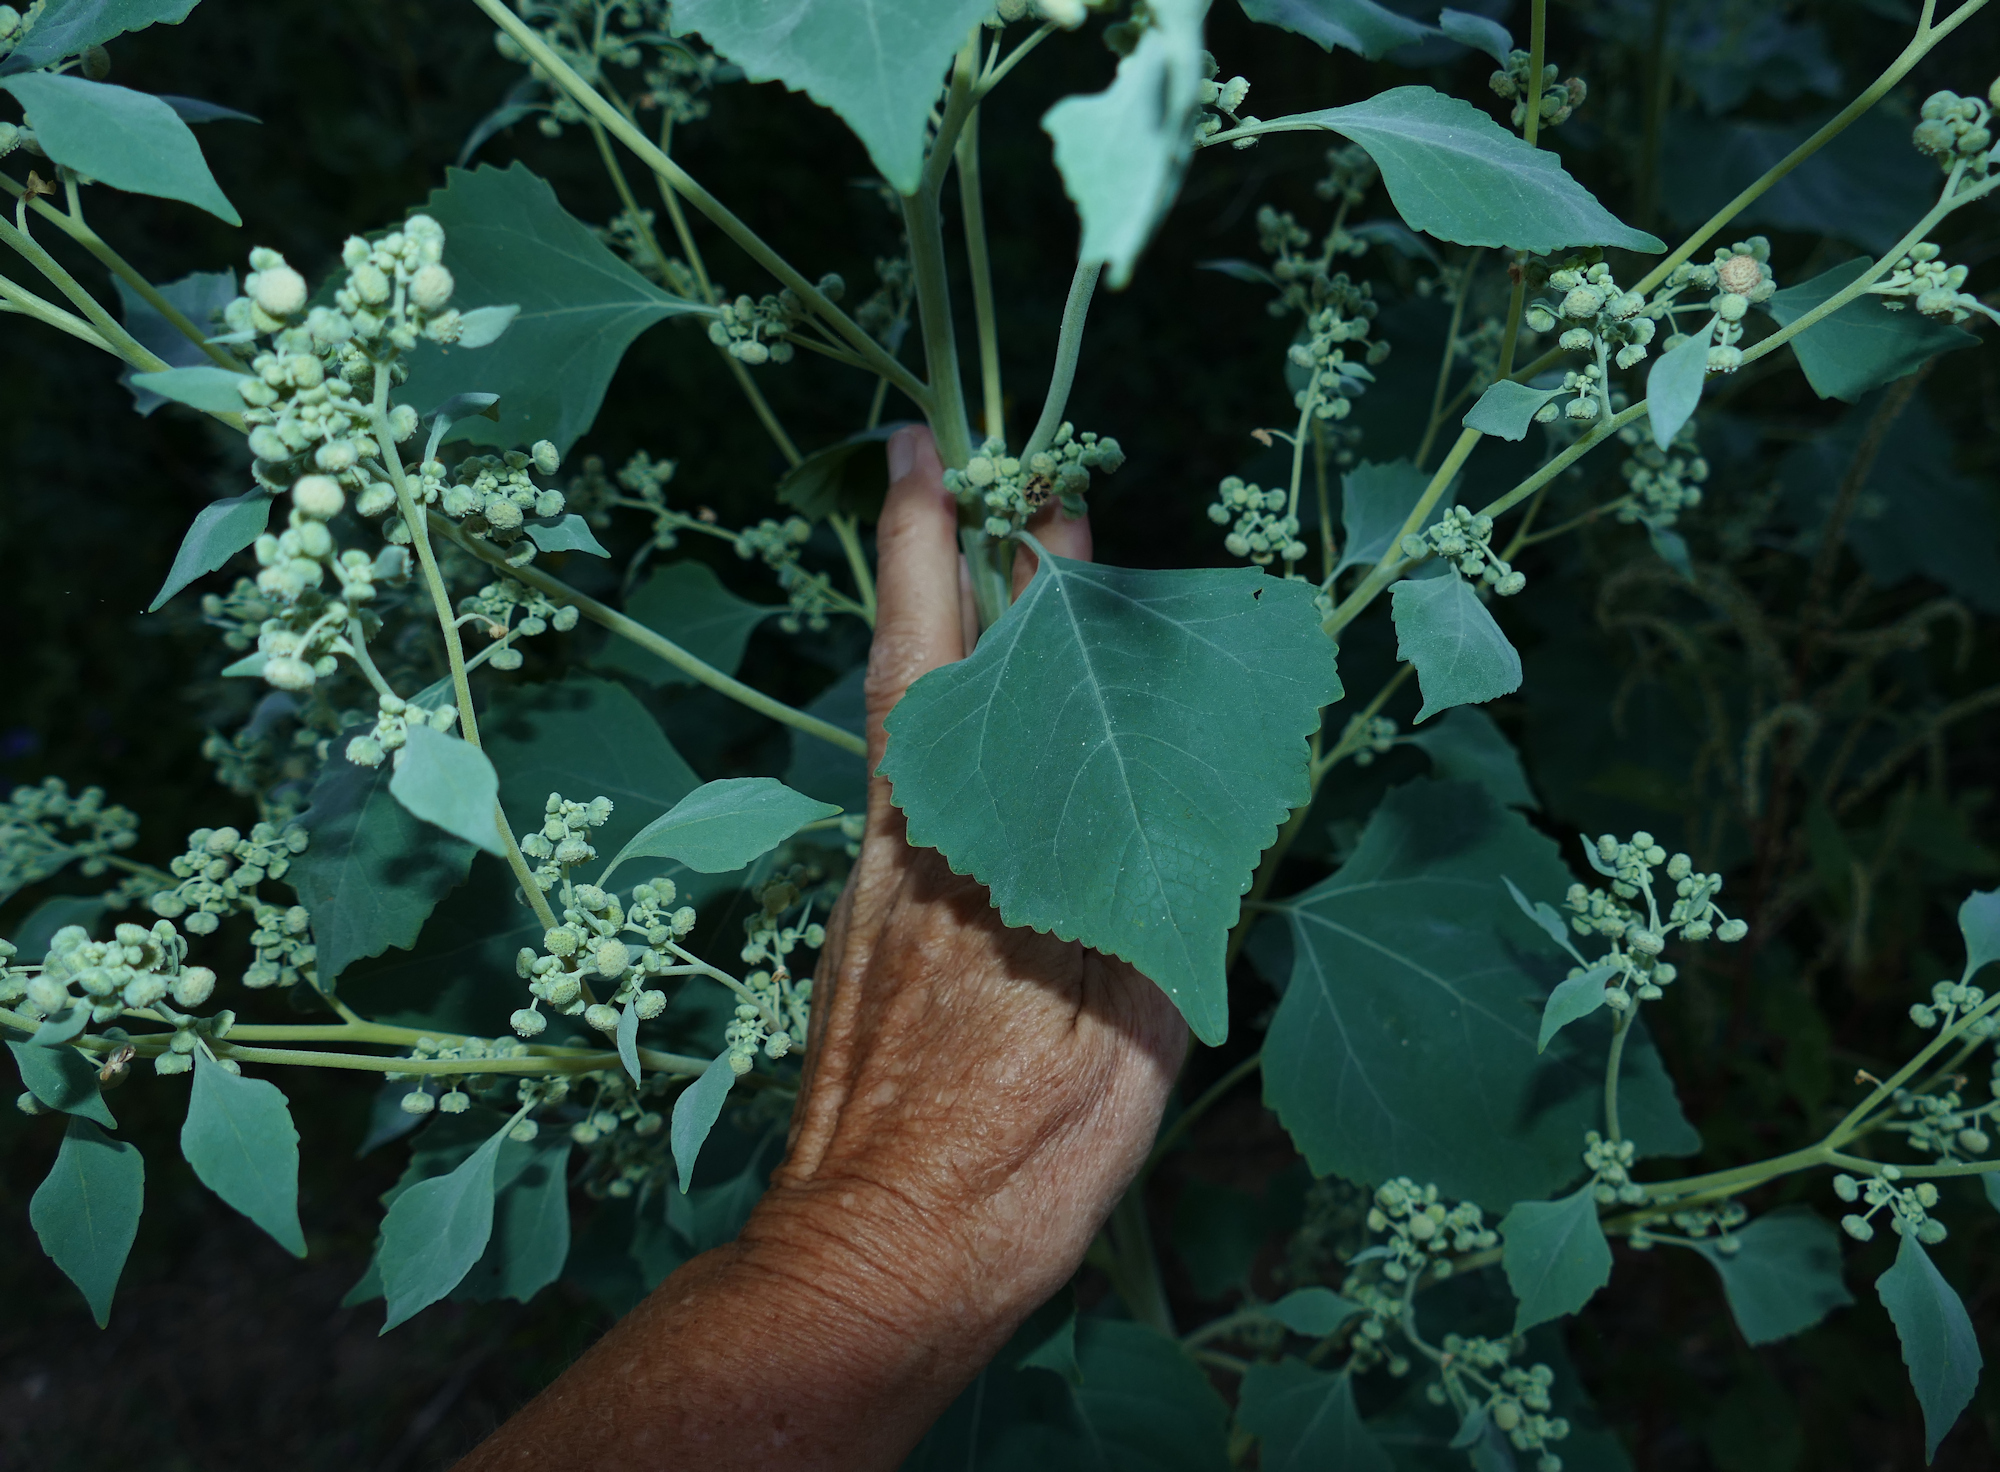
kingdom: Plantae
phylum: Tracheophyta
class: Magnoliopsida
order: Asterales
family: Asteraceae
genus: Parthenice
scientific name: Parthenice mollis
